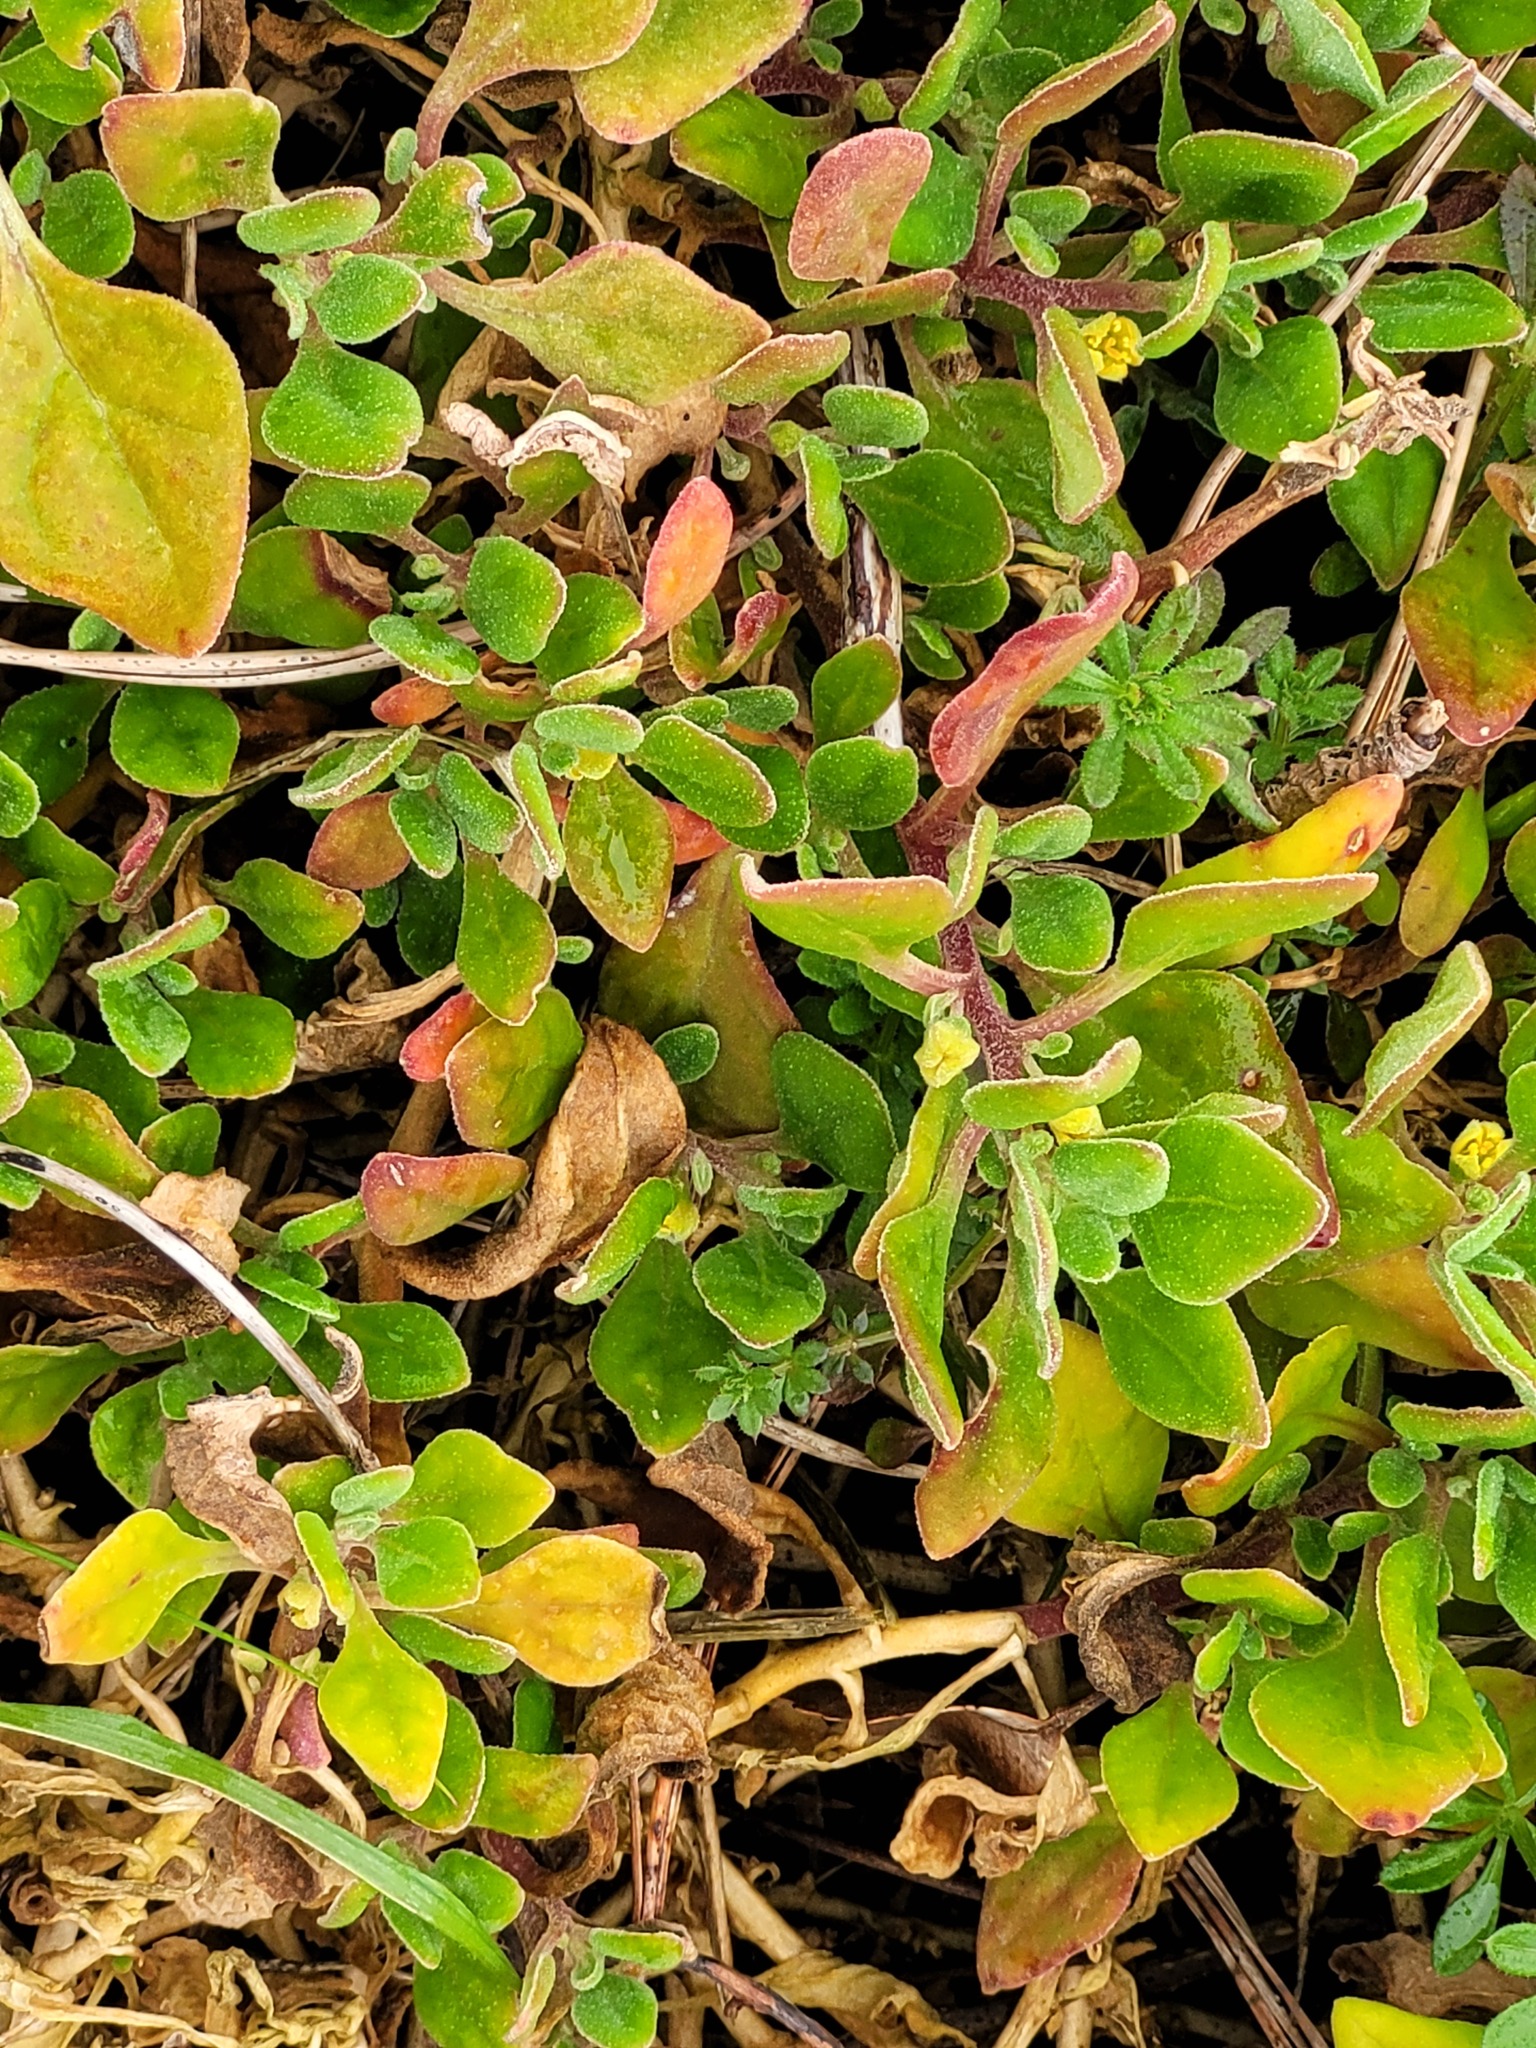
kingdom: Plantae
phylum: Tracheophyta
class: Magnoliopsida
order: Caryophyllales
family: Aizoaceae
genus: Tetragonia
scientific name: Tetragonia implexicoma
